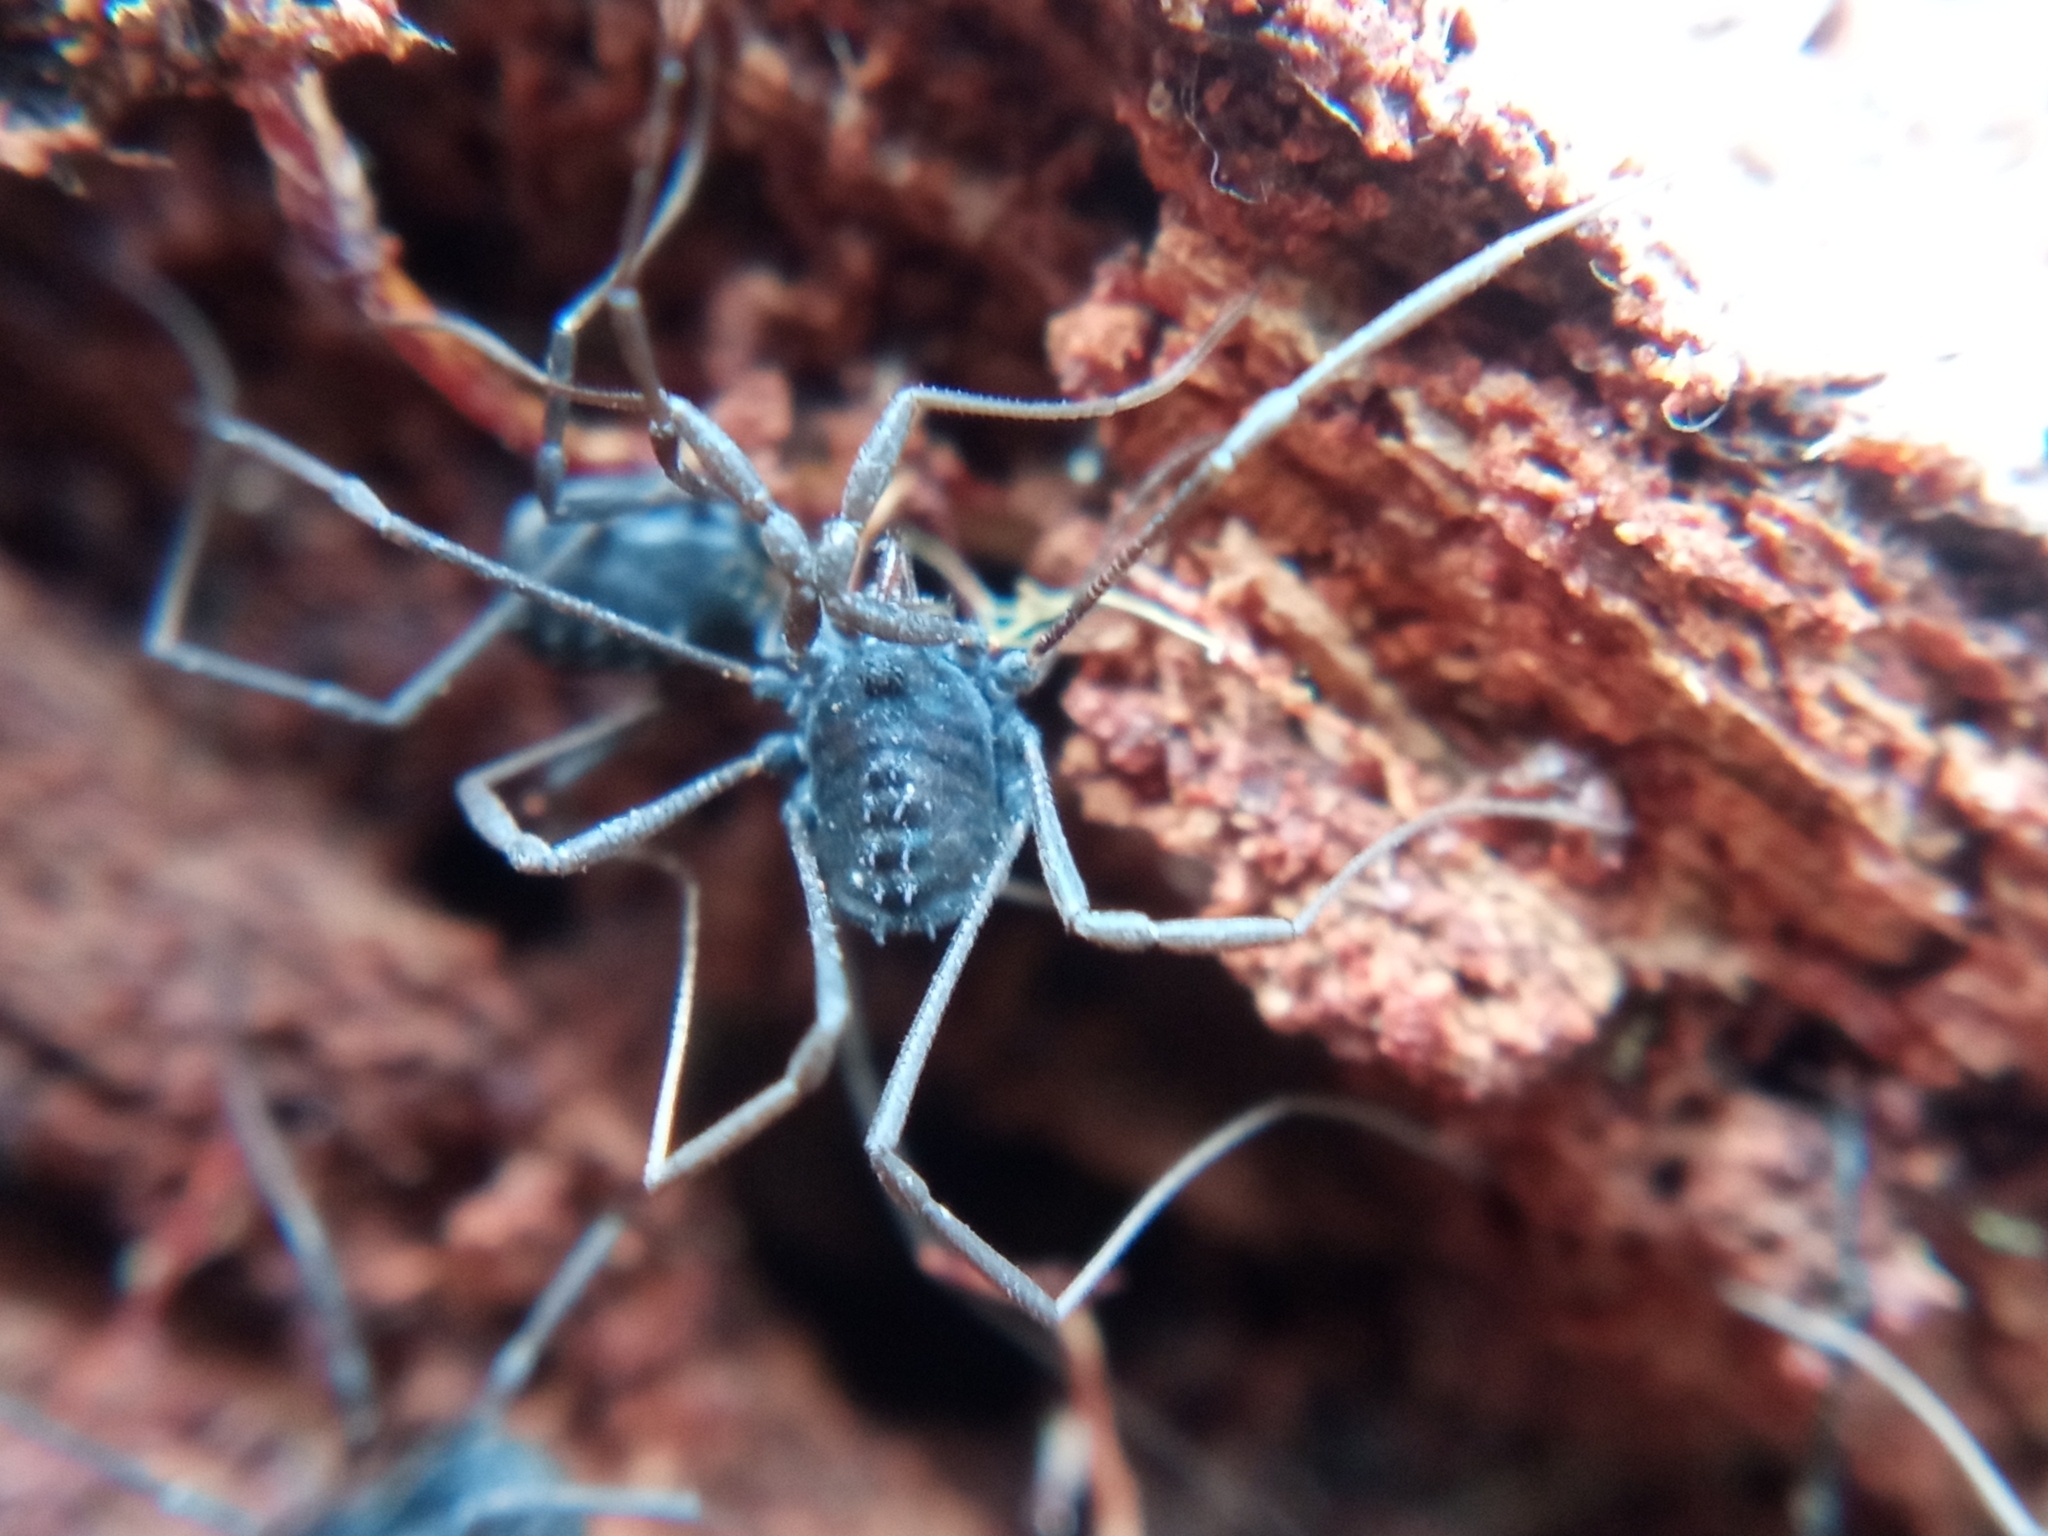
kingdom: Animalia
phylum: Arthropoda
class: Arachnida
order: Opiliones
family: Nemastomatidae
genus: Histricostoma
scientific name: Histricostoma dentipalpe
